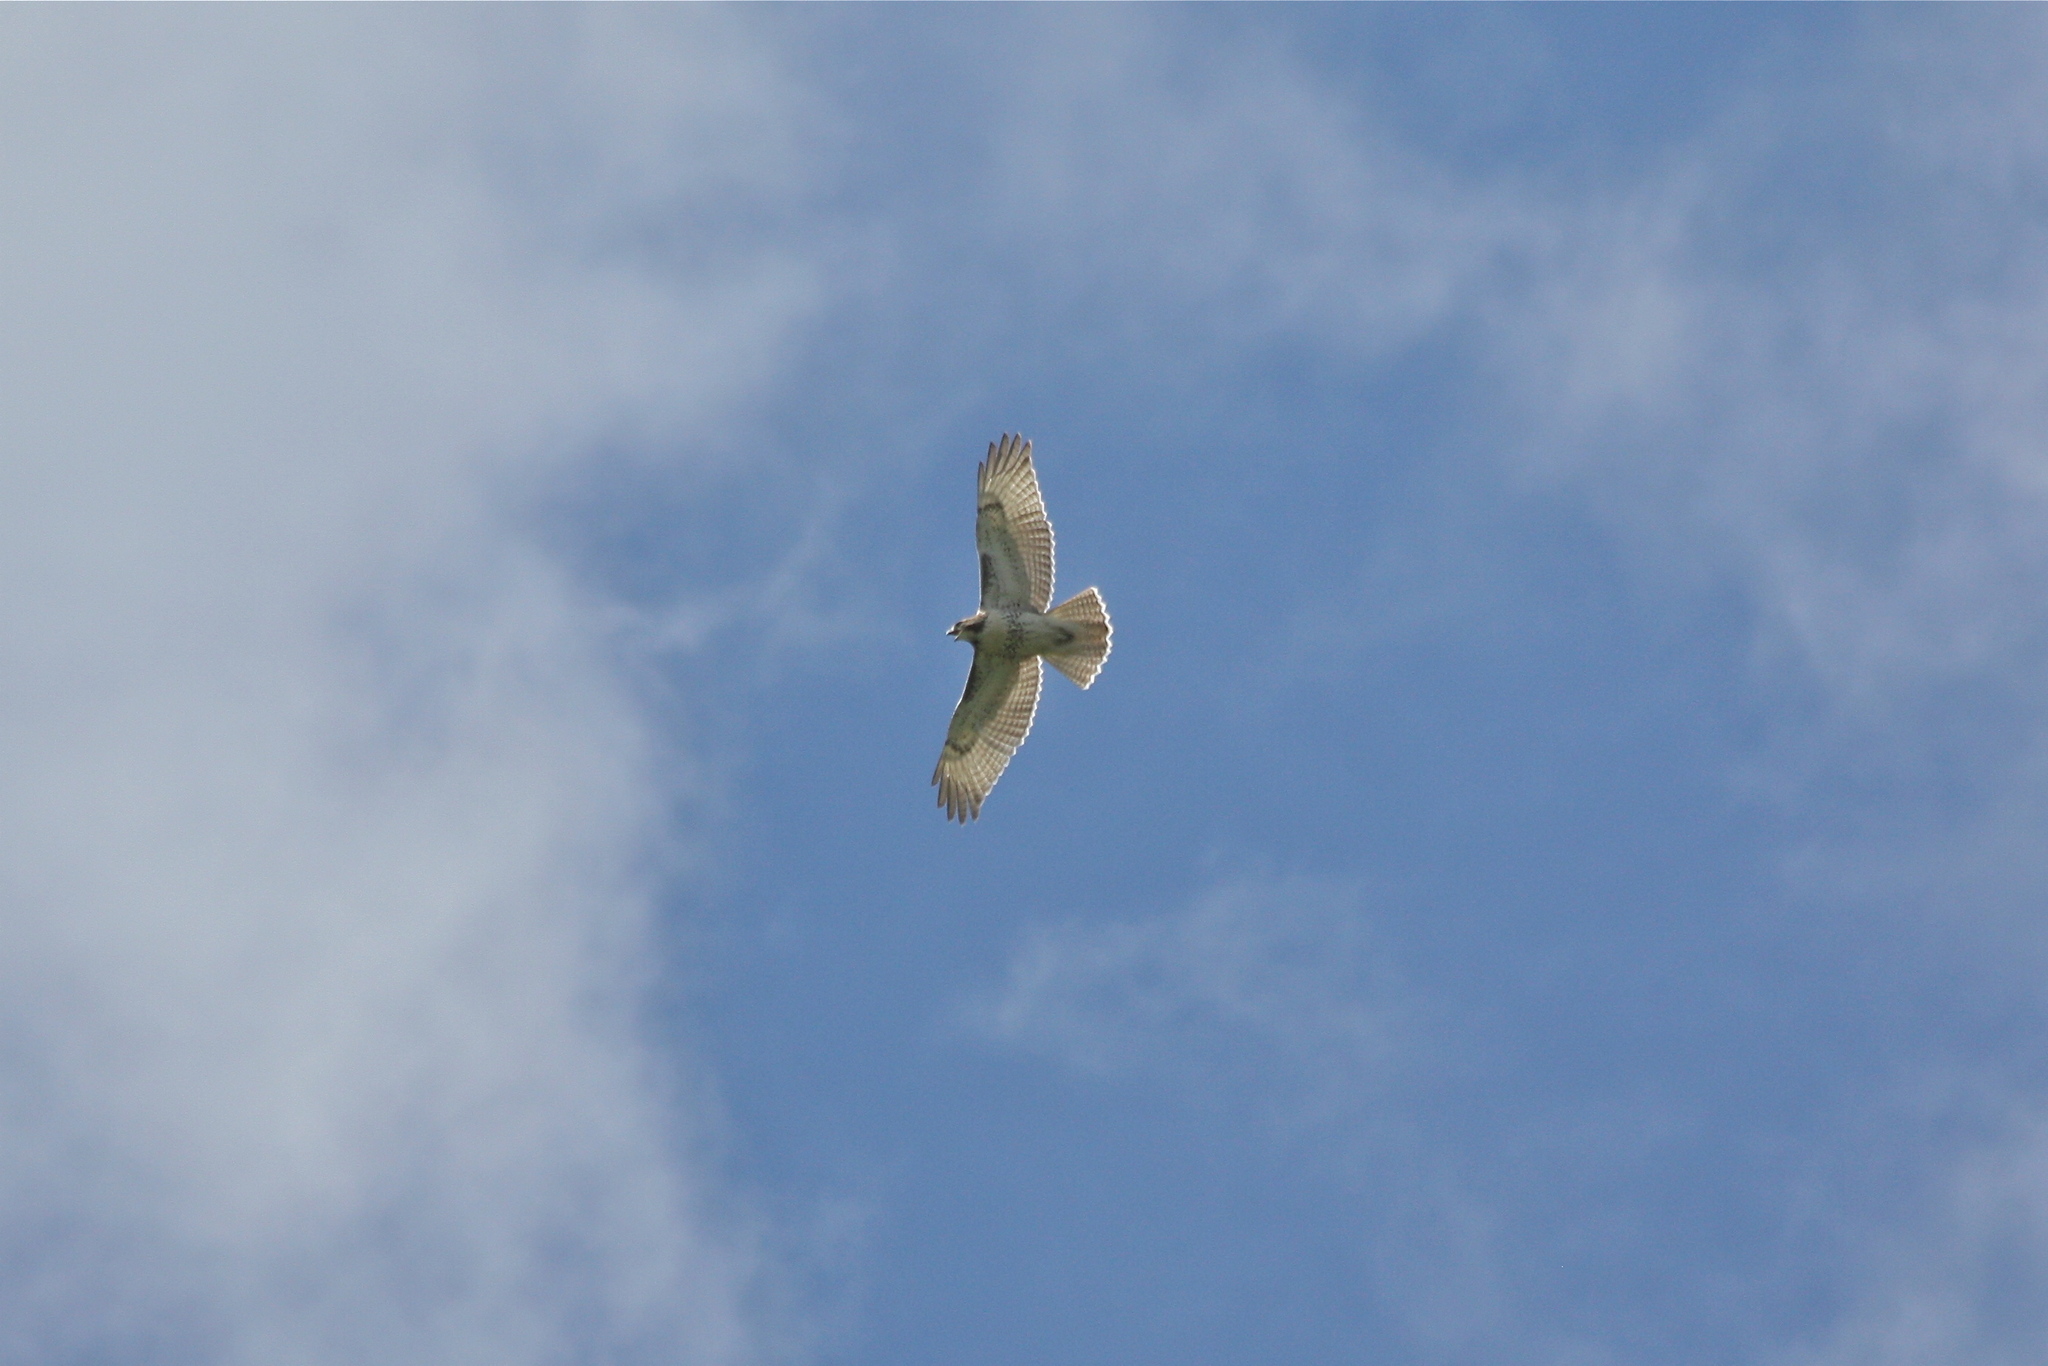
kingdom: Animalia
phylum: Chordata
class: Aves
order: Accipitriformes
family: Accipitridae
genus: Buteo
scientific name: Buteo jamaicensis
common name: Red-tailed hawk
